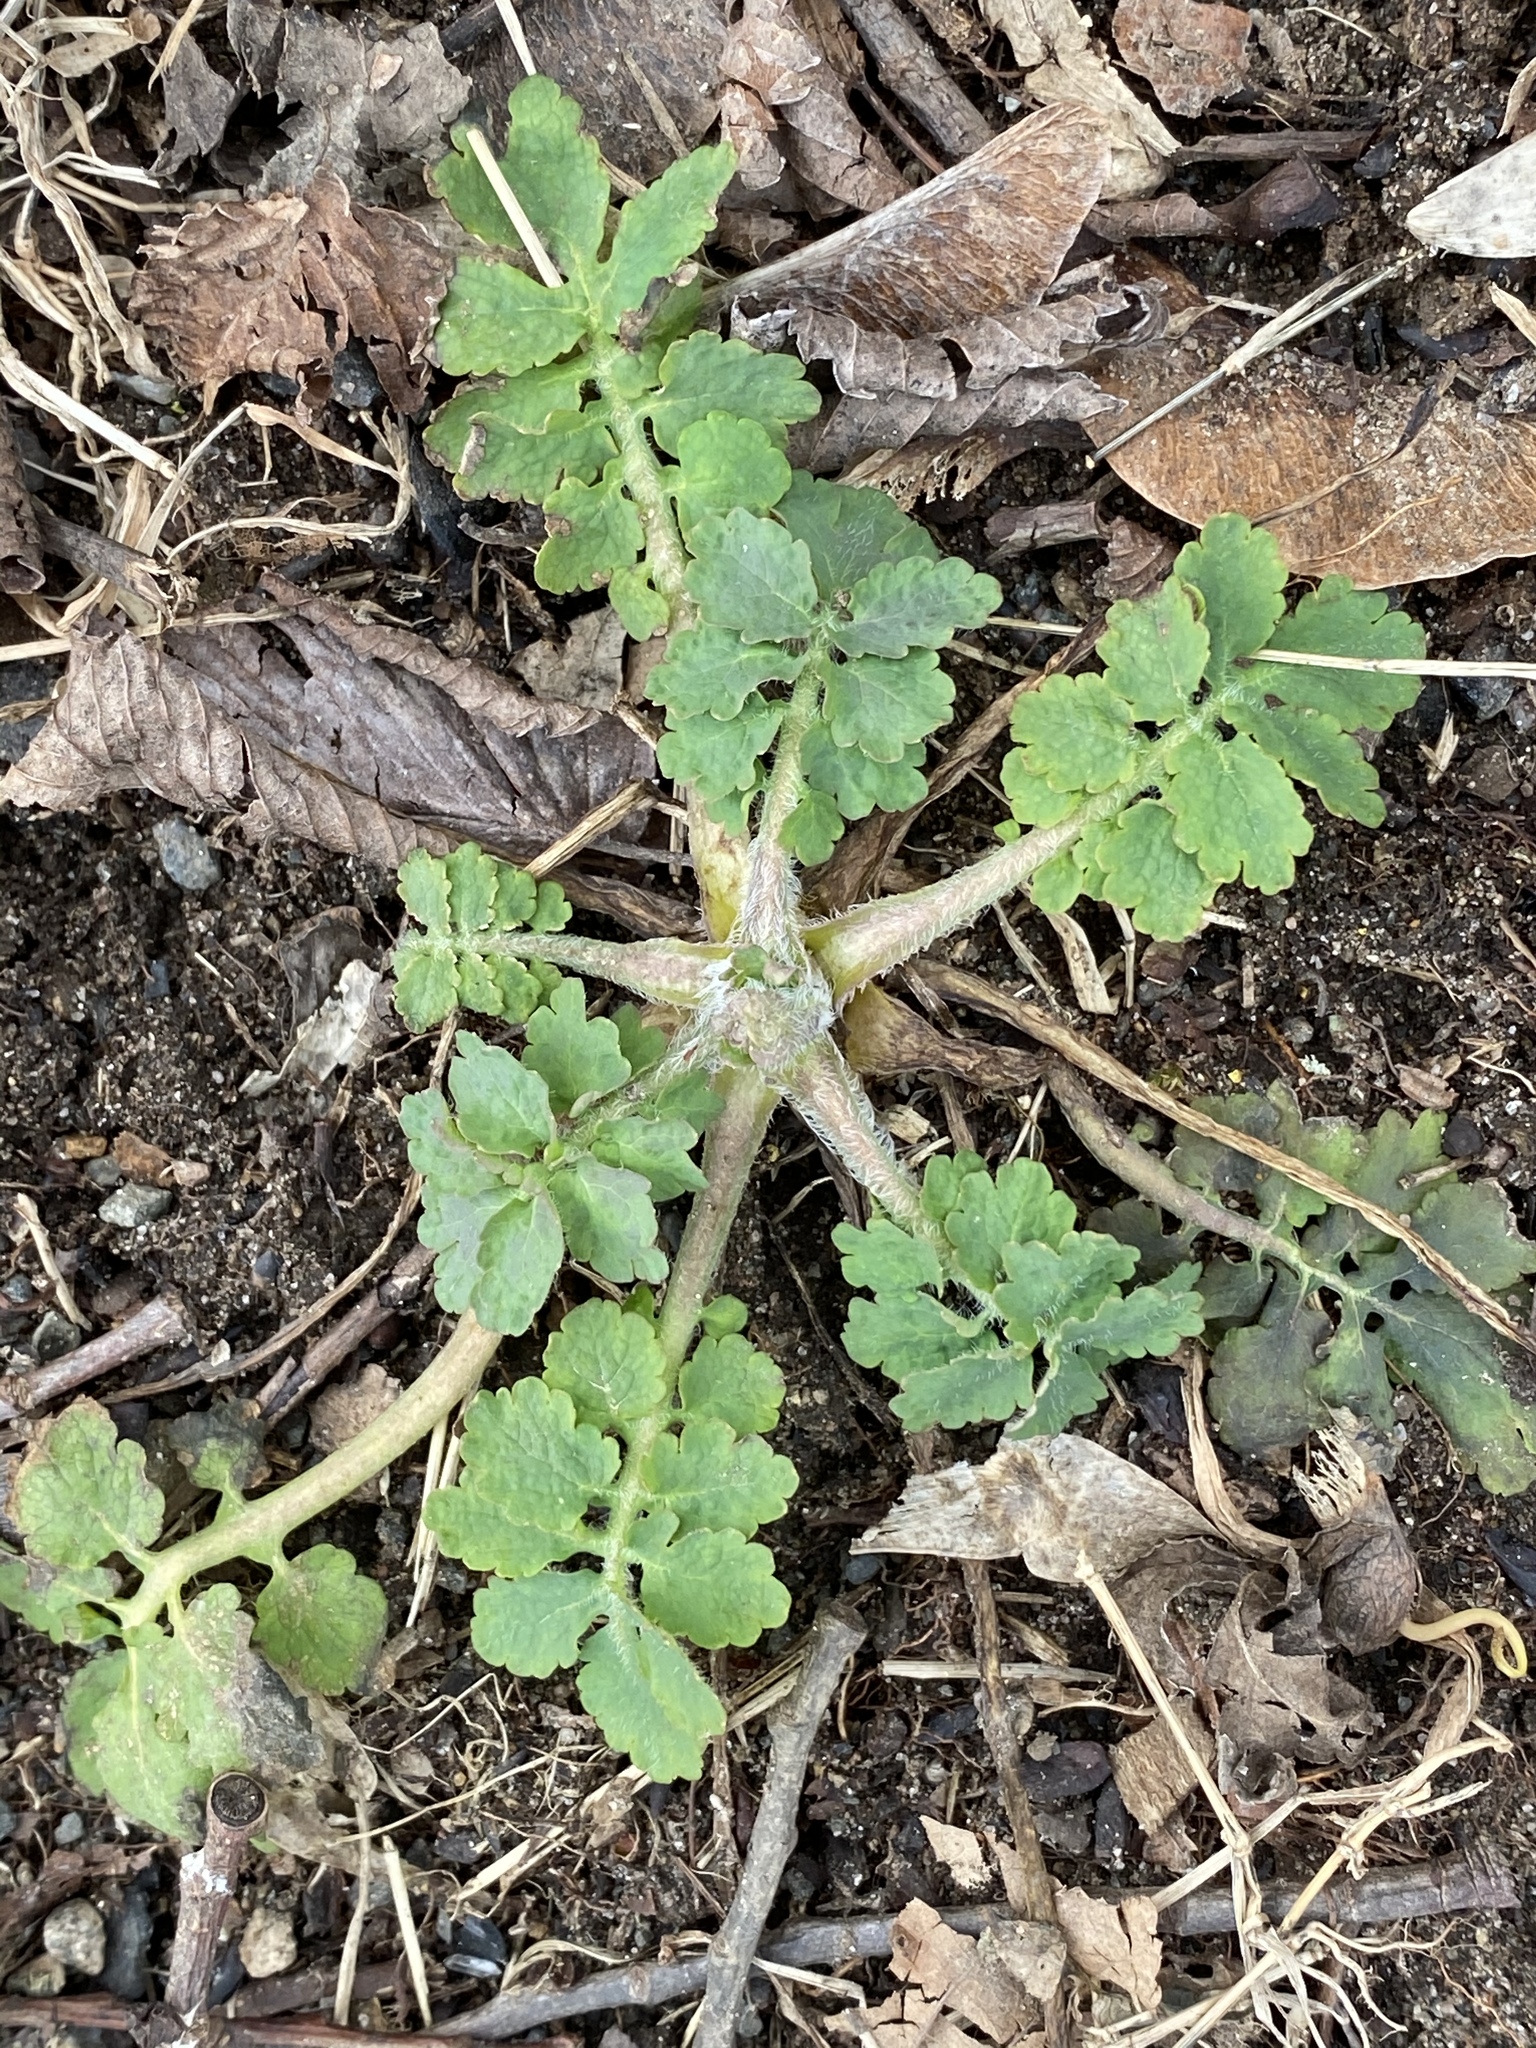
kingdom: Plantae
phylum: Tracheophyta
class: Magnoliopsida
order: Ranunculales
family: Papaveraceae
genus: Chelidonium
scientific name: Chelidonium majus
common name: Greater celandine
